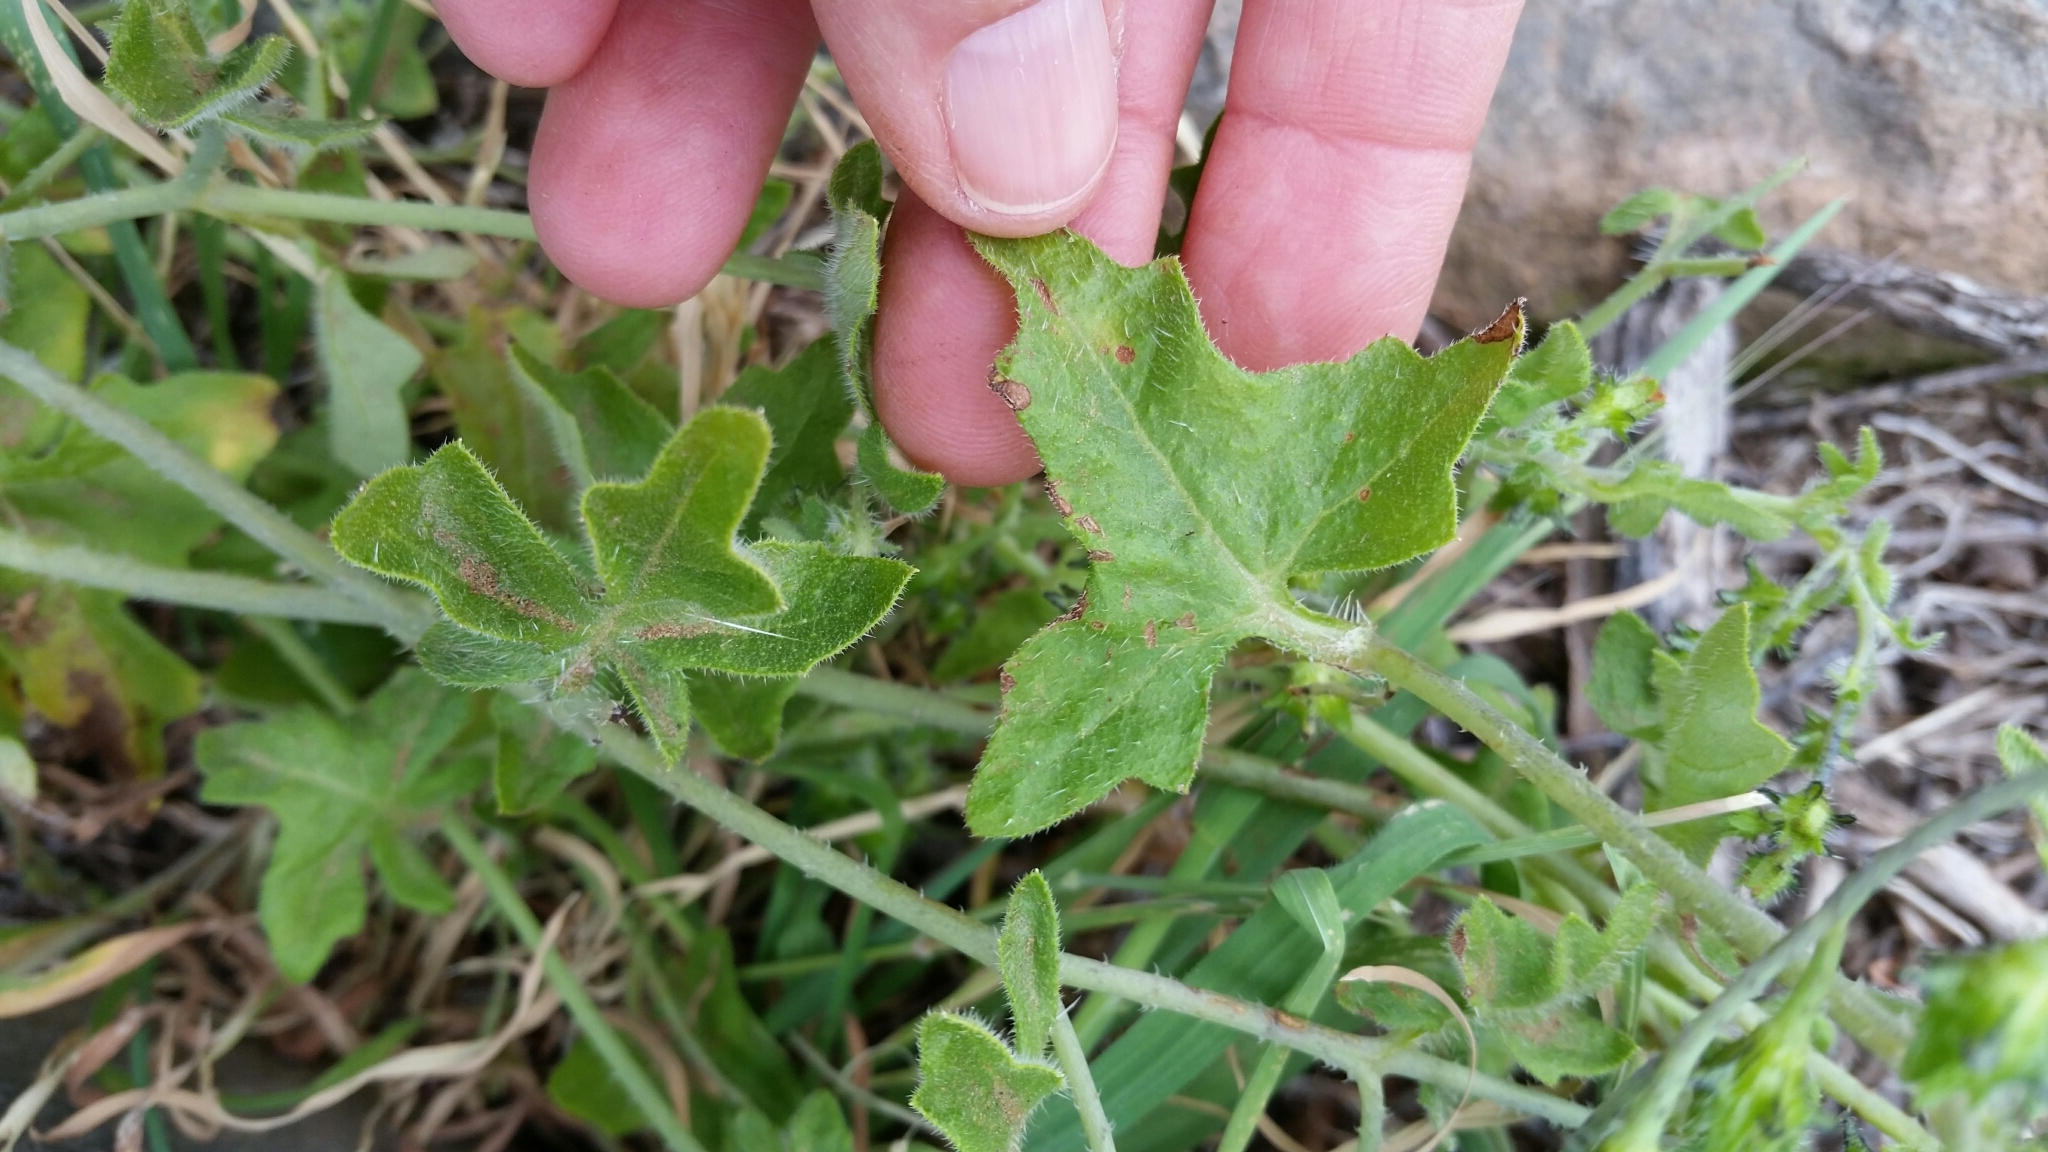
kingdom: Plantae
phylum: Tracheophyta
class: Magnoliopsida
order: Boraginales
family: Hydrophyllaceae
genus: Pholistoma
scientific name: Pholistoma racemosum
